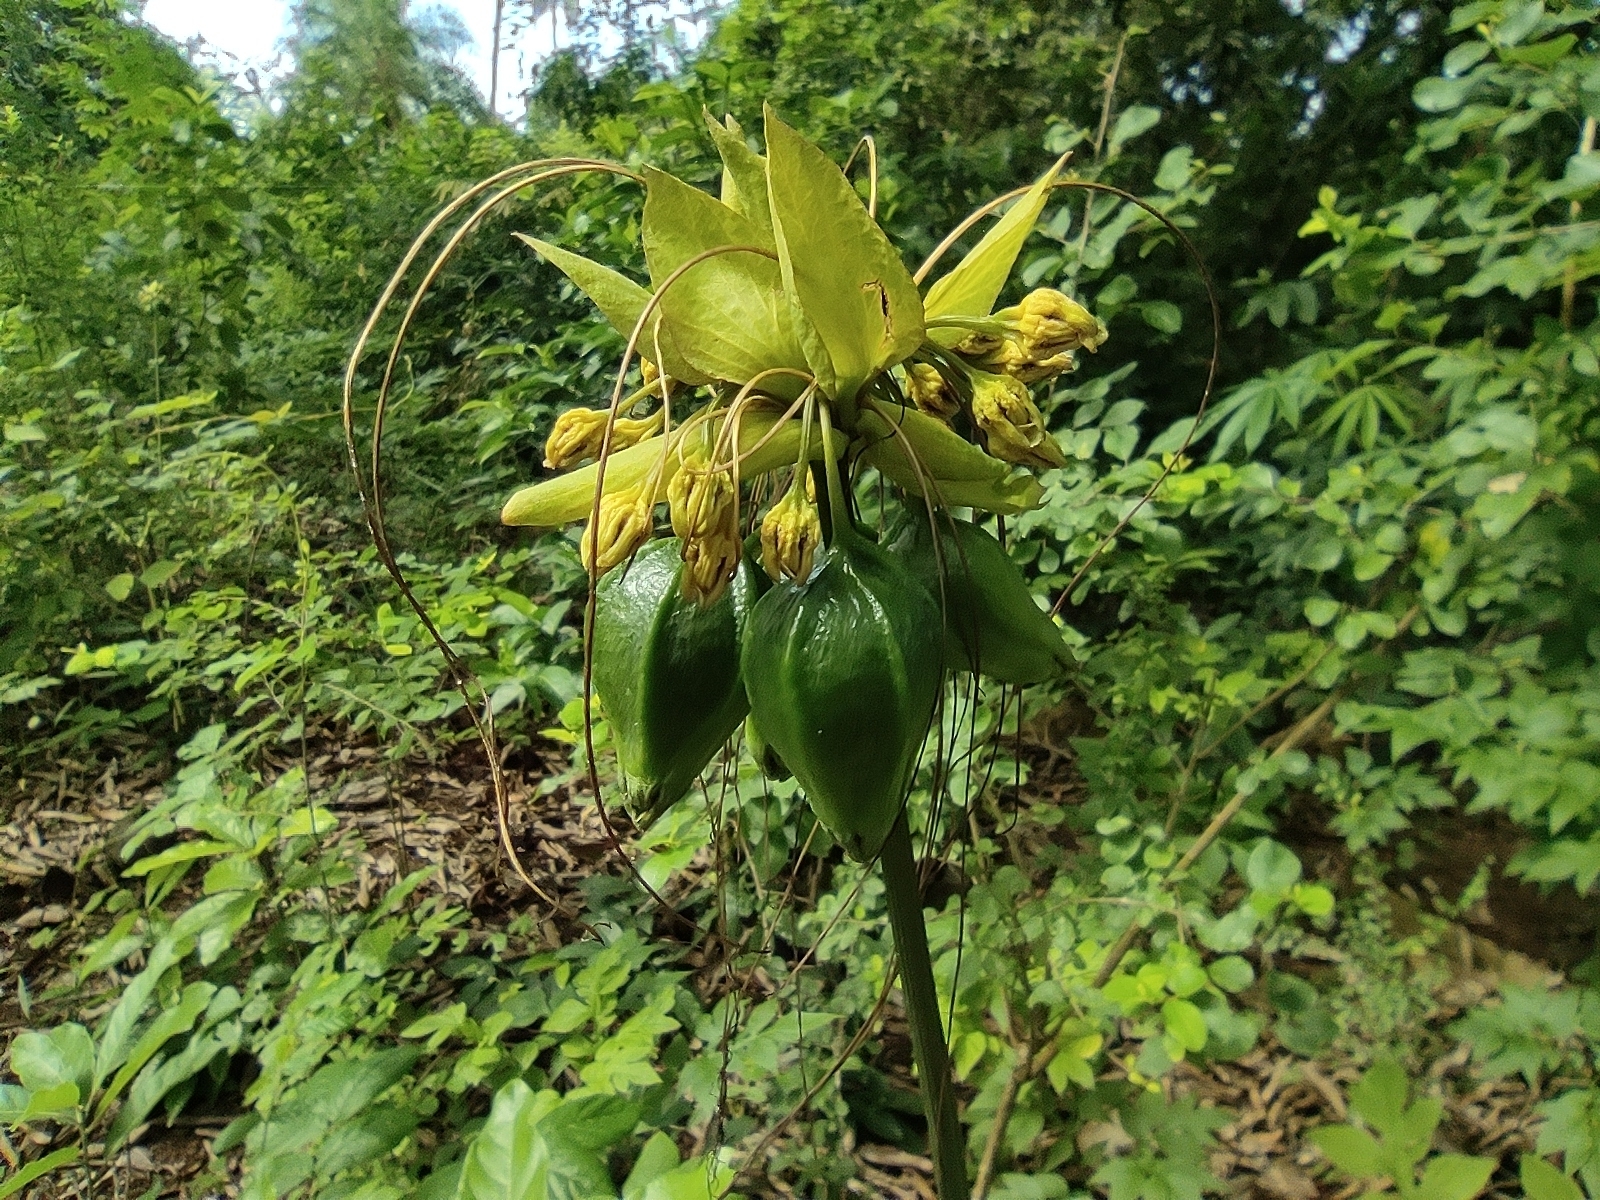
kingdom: Plantae
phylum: Tracheophyta
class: Liliopsida
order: Dioscoreales
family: Dioscoreaceae
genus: Tacca
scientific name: Tacca leontopetaloides
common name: Arrowroot
